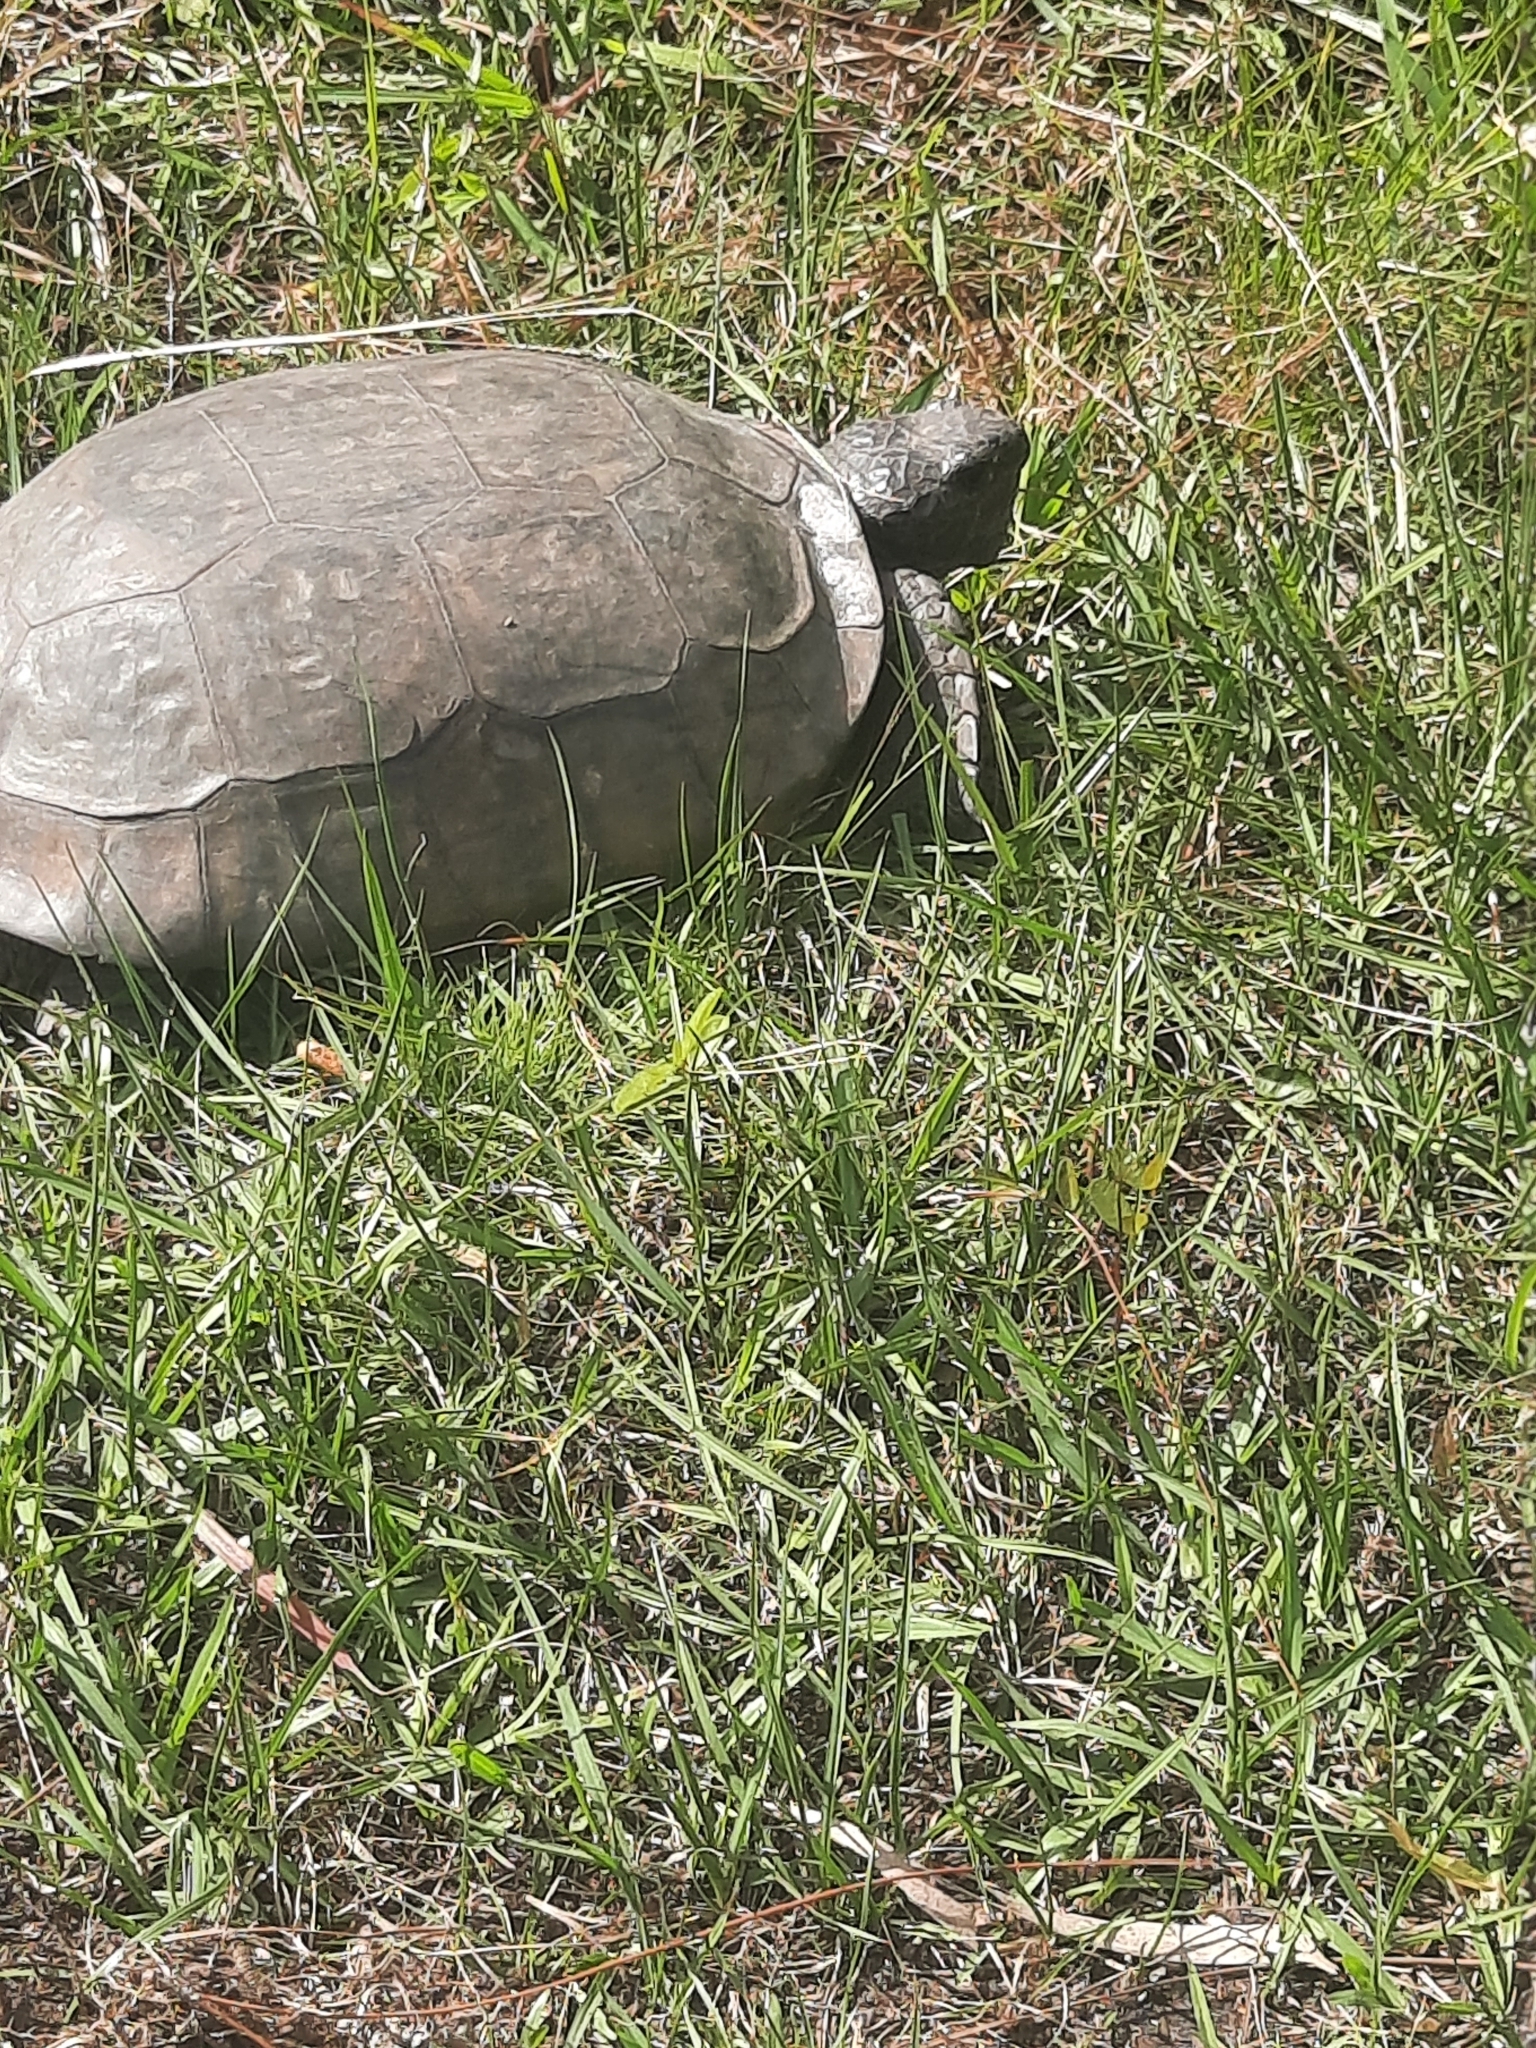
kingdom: Animalia
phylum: Chordata
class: Testudines
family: Testudinidae
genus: Gopherus
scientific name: Gopherus polyphemus
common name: Florida gopher tortoise
